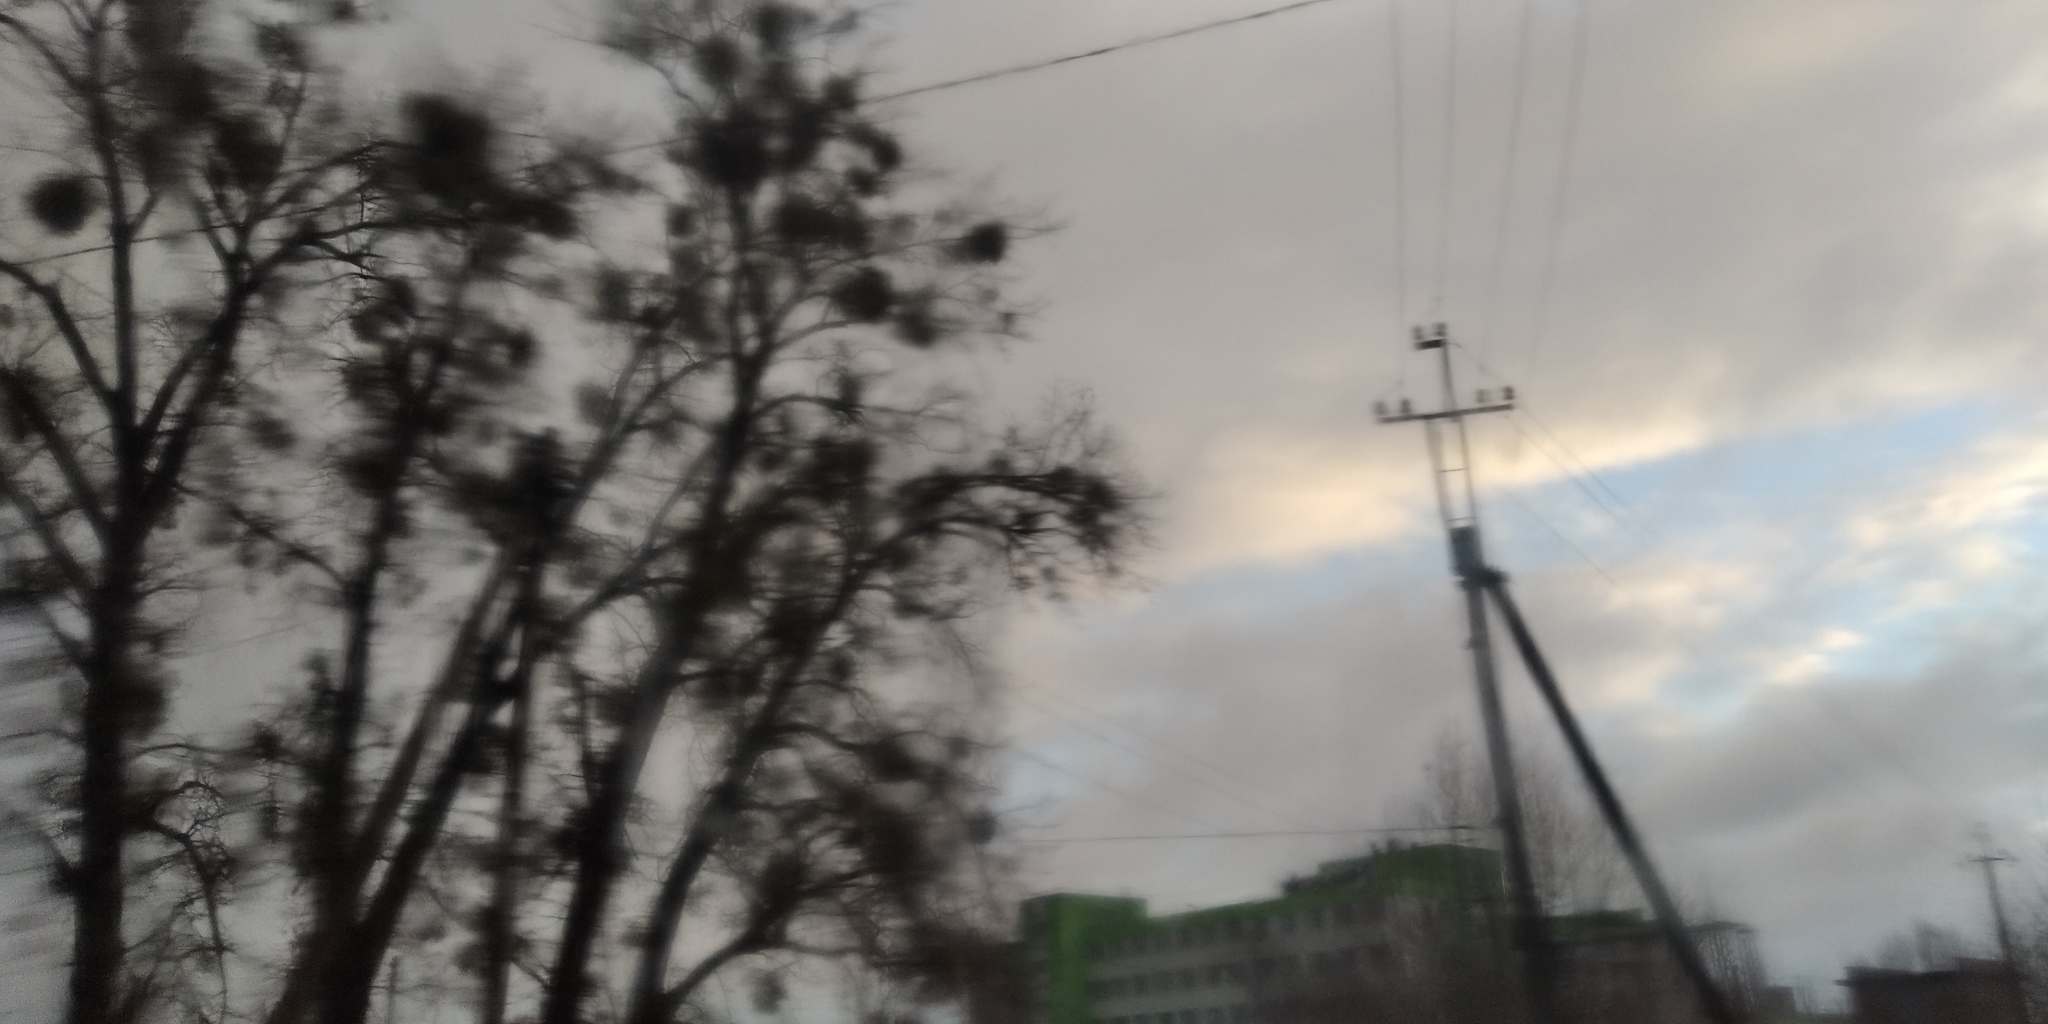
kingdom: Plantae
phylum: Tracheophyta
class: Magnoliopsida
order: Santalales
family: Viscaceae
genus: Viscum
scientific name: Viscum album
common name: Mistletoe
